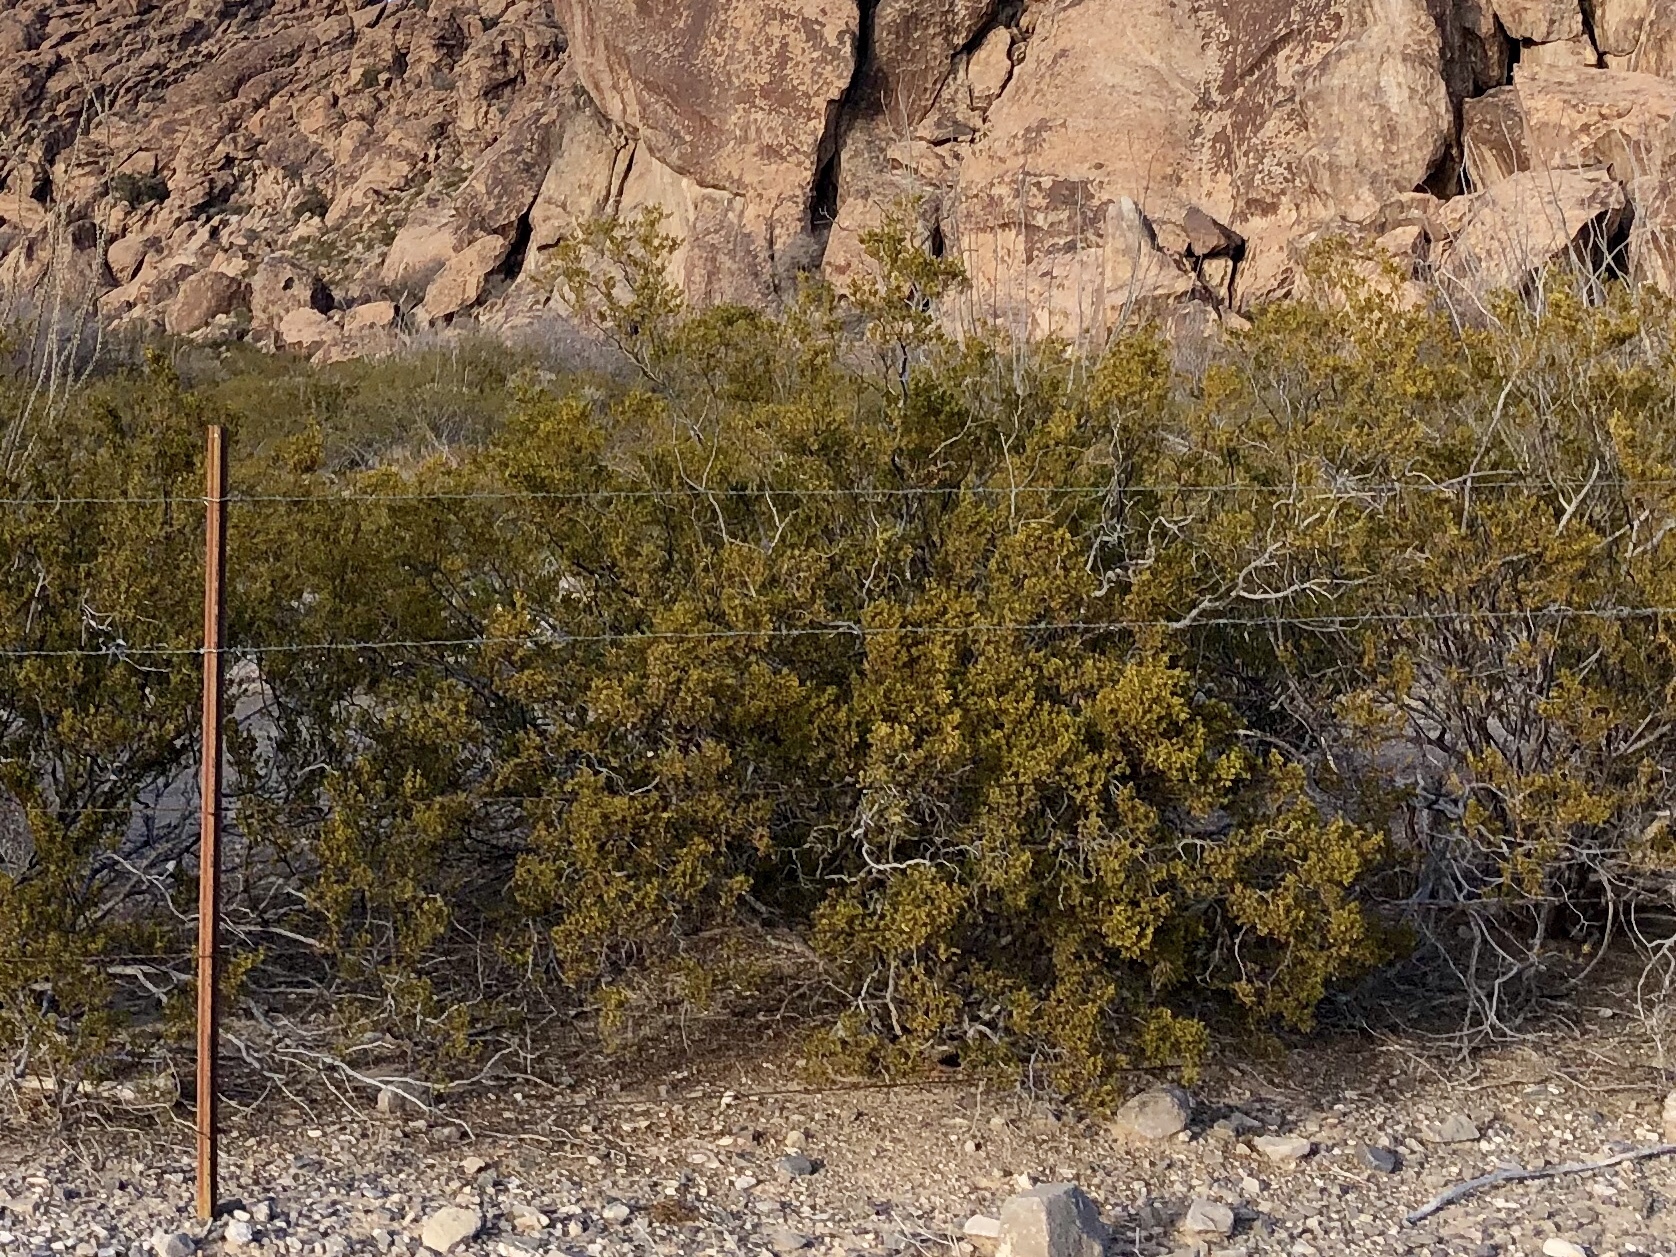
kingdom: Plantae
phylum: Tracheophyta
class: Magnoliopsida
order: Zygophyllales
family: Zygophyllaceae
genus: Larrea
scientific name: Larrea tridentata
